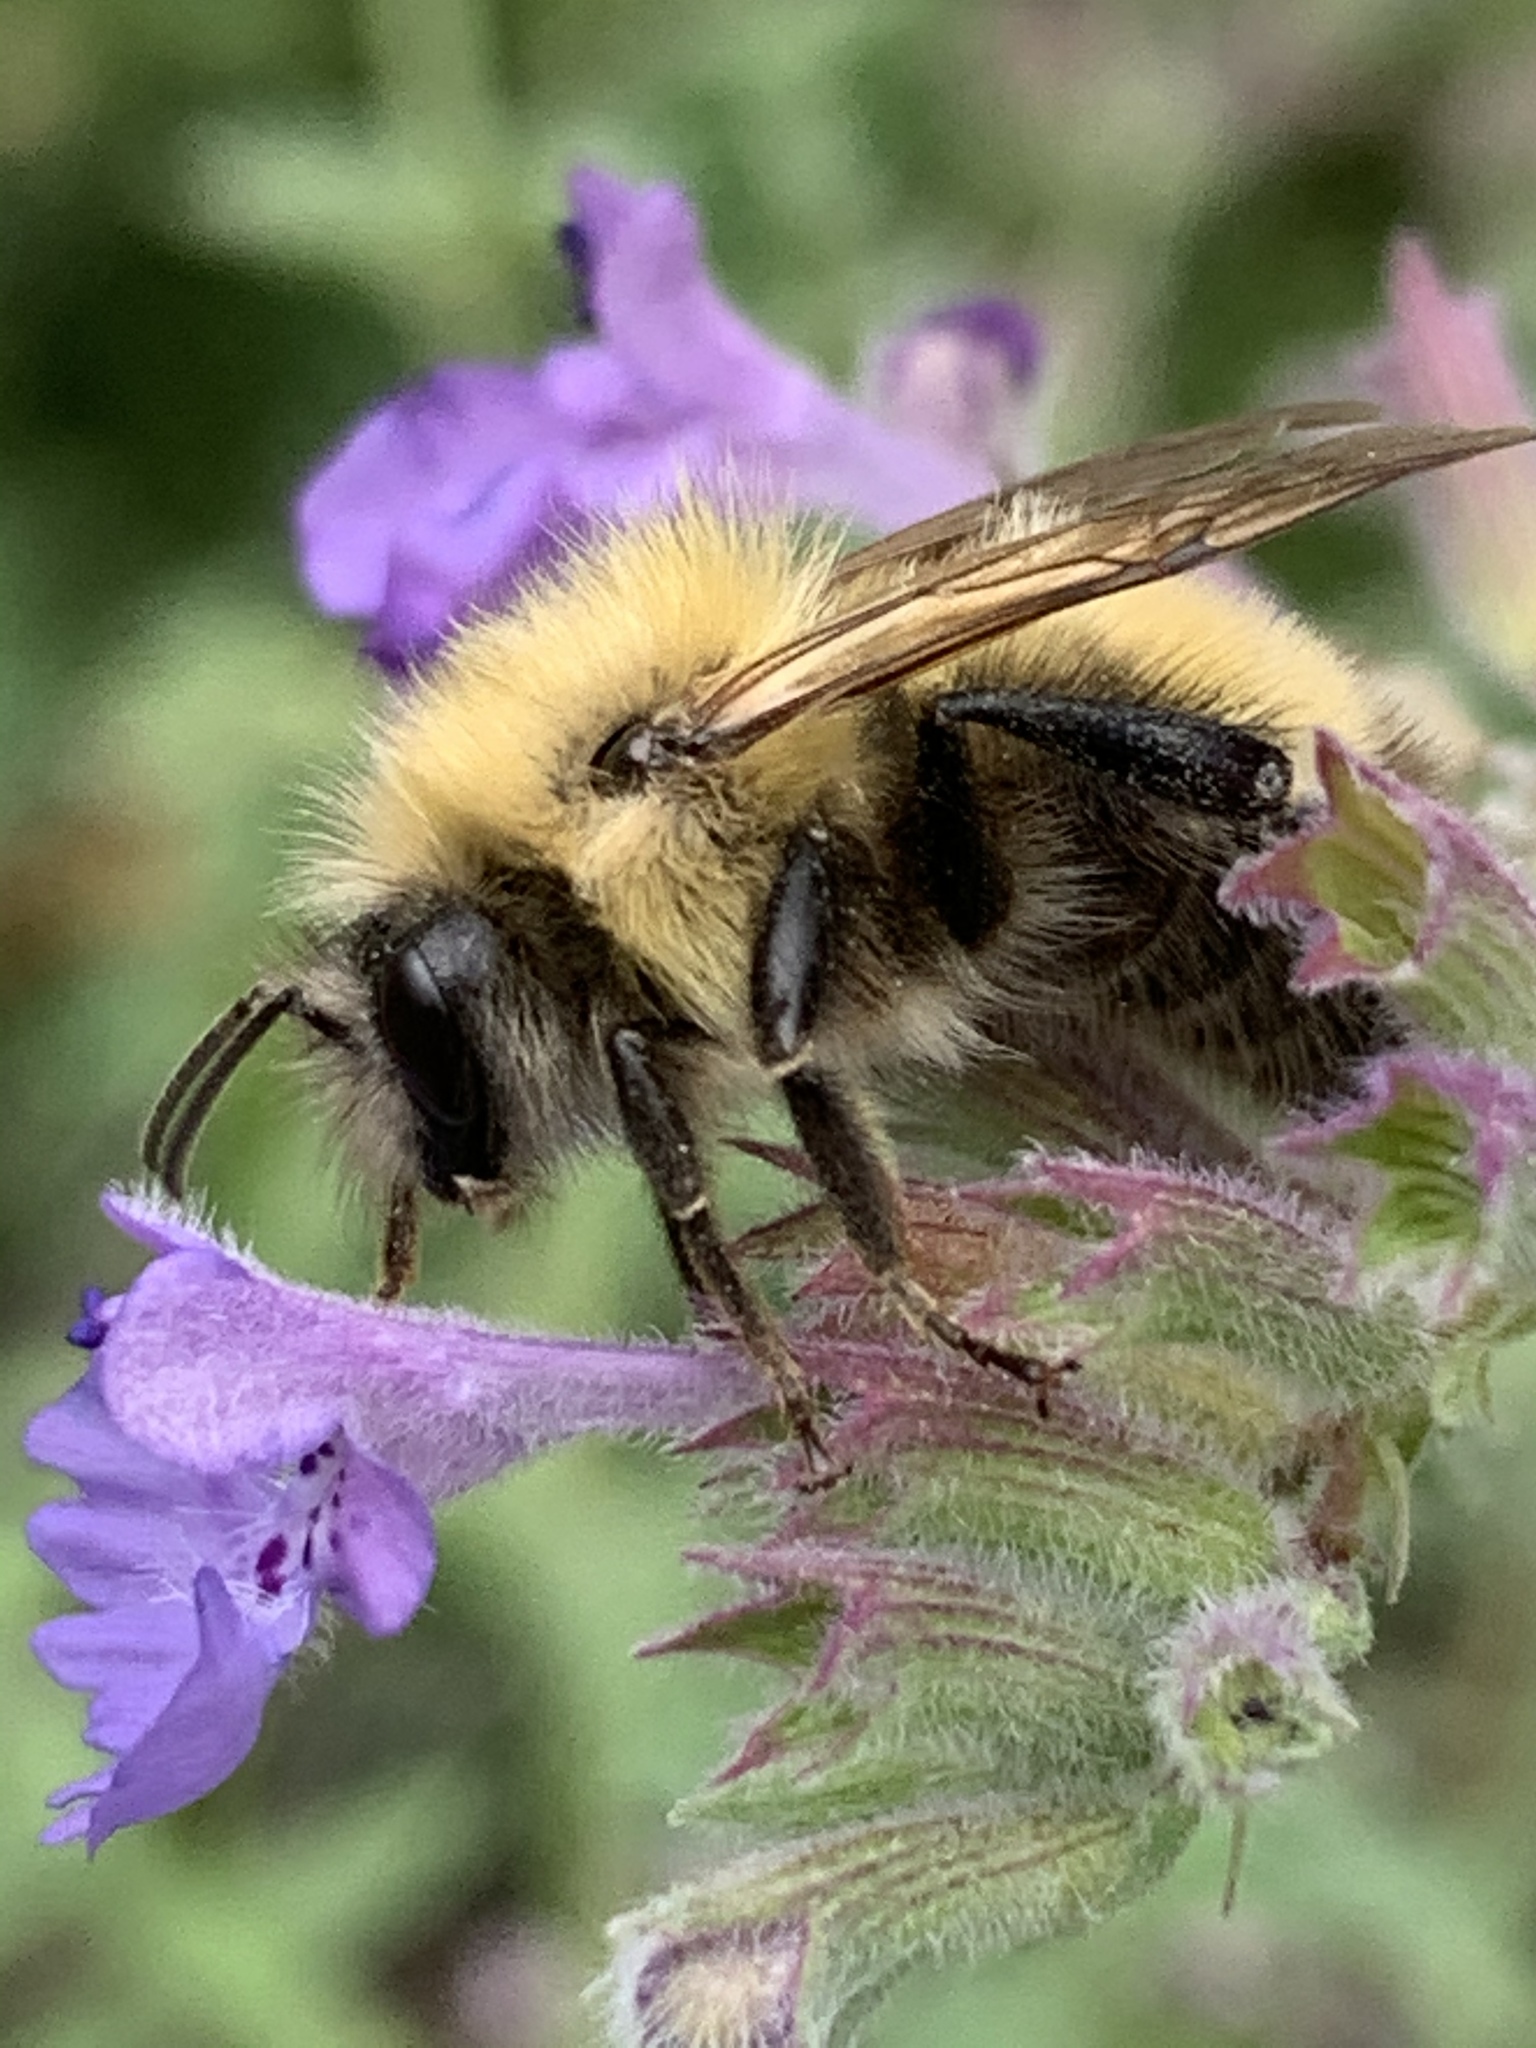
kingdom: Animalia
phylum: Arthropoda
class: Insecta
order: Hymenoptera
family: Apidae
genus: Bombus
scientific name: Bombus perplexus
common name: Confusing bumble bee
